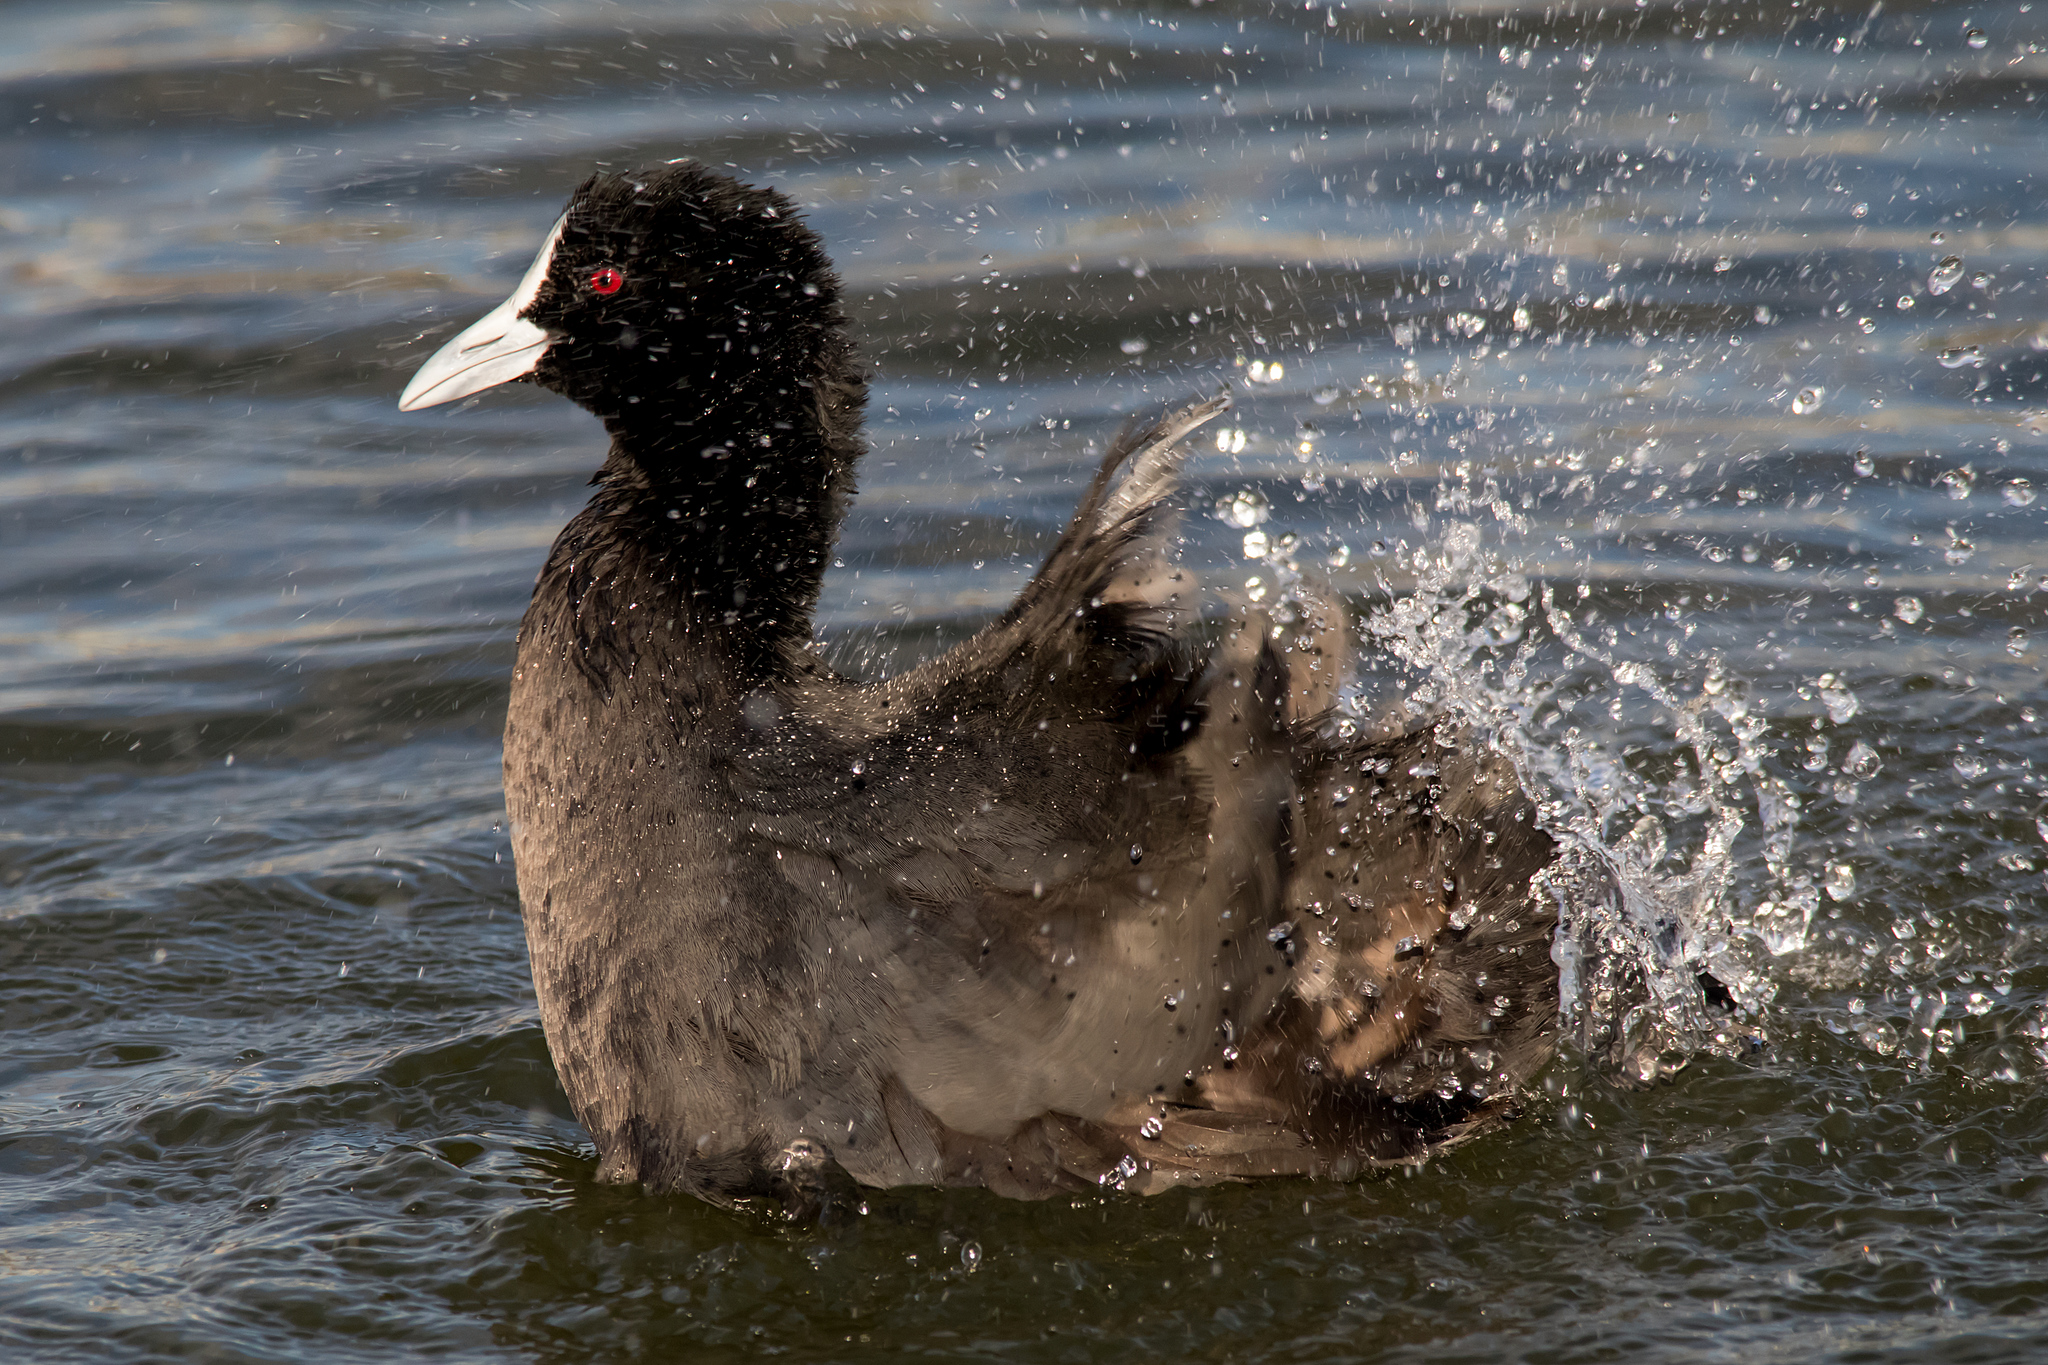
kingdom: Animalia
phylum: Chordata
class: Aves
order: Gruiformes
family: Rallidae
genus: Fulica
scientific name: Fulica atra
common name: Eurasian coot
